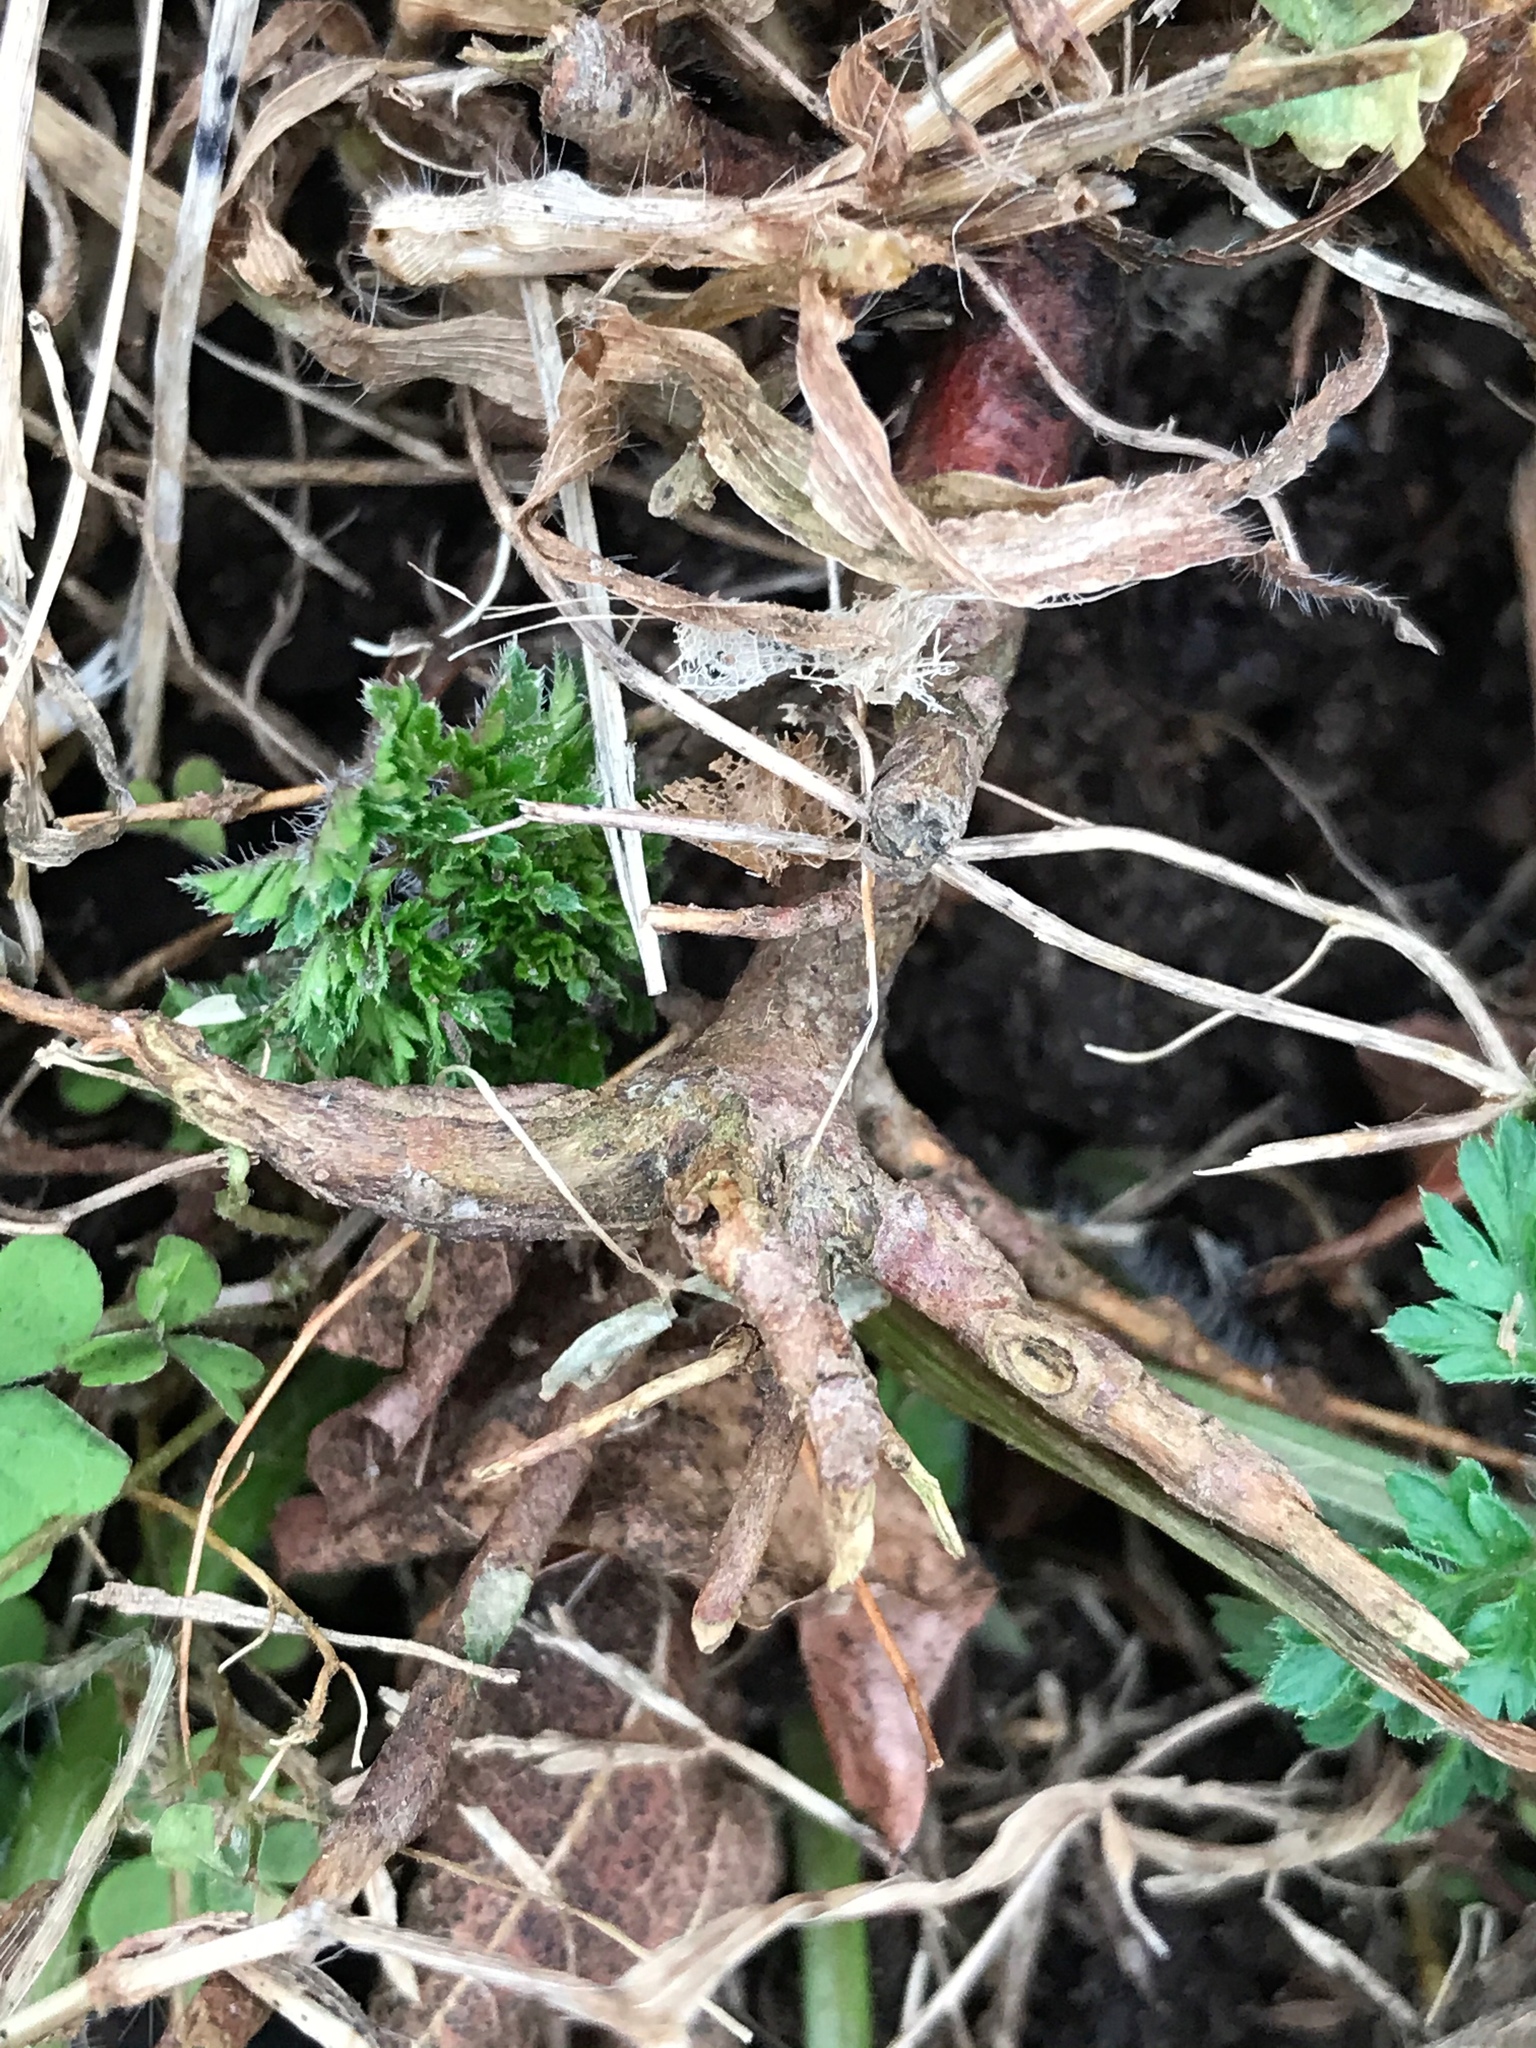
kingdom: Plantae
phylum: Tracheophyta
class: Magnoliopsida
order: Apiales
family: Apiaceae
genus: Daucus
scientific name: Daucus carota
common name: Wild carrot
